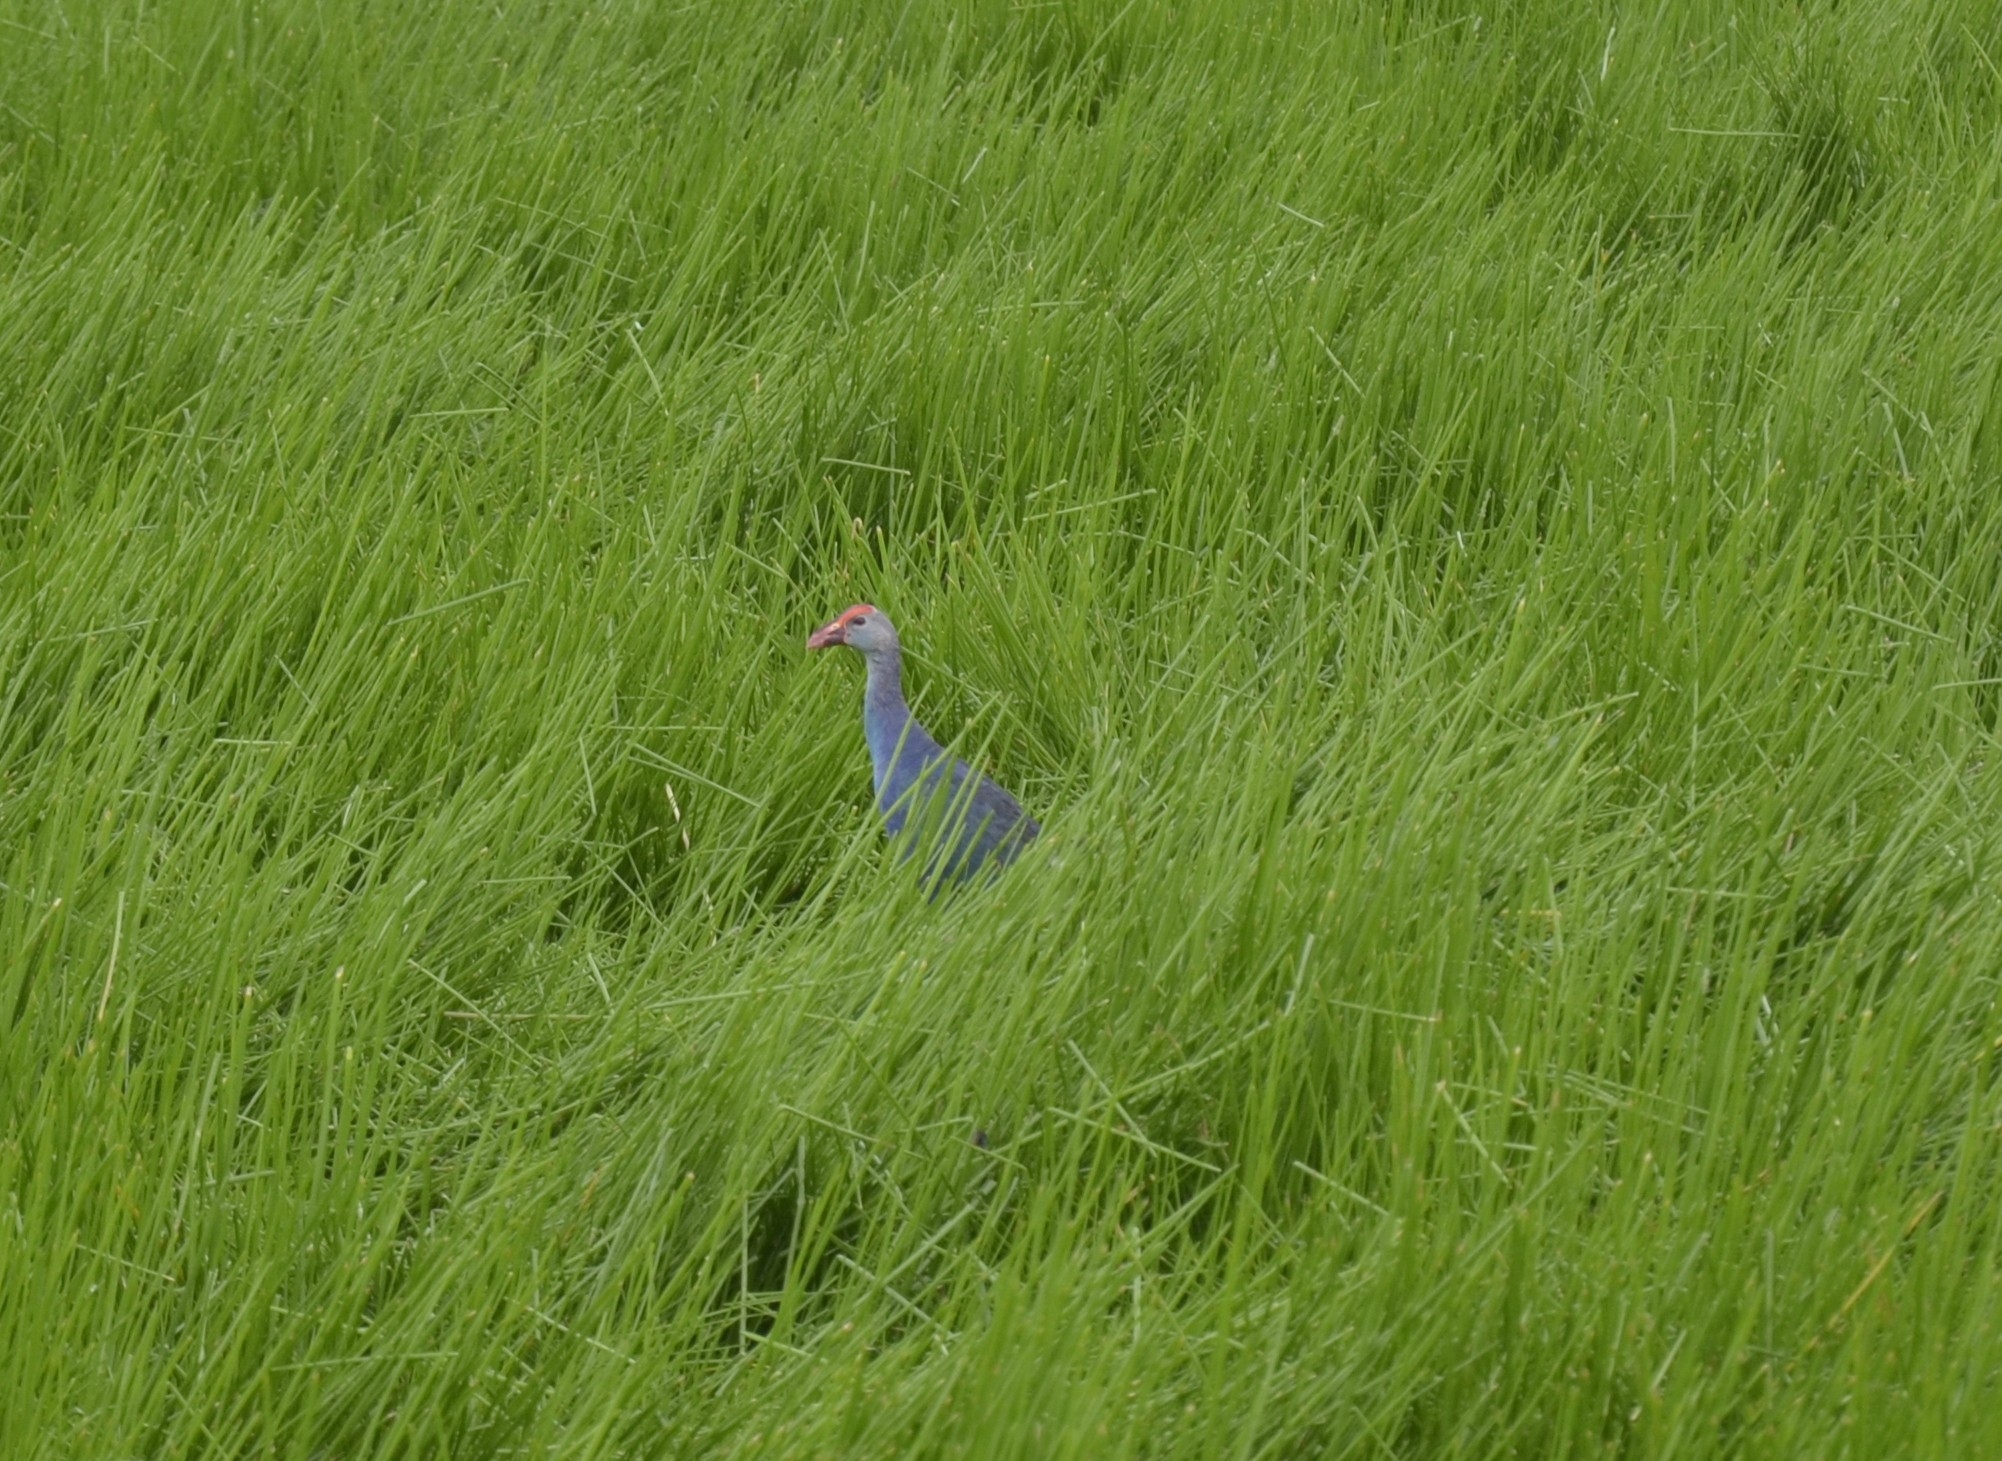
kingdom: Animalia
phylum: Chordata
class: Aves
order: Gruiformes
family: Rallidae
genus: Porphyrio
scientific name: Porphyrio porphyrio
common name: Purple swamphen
